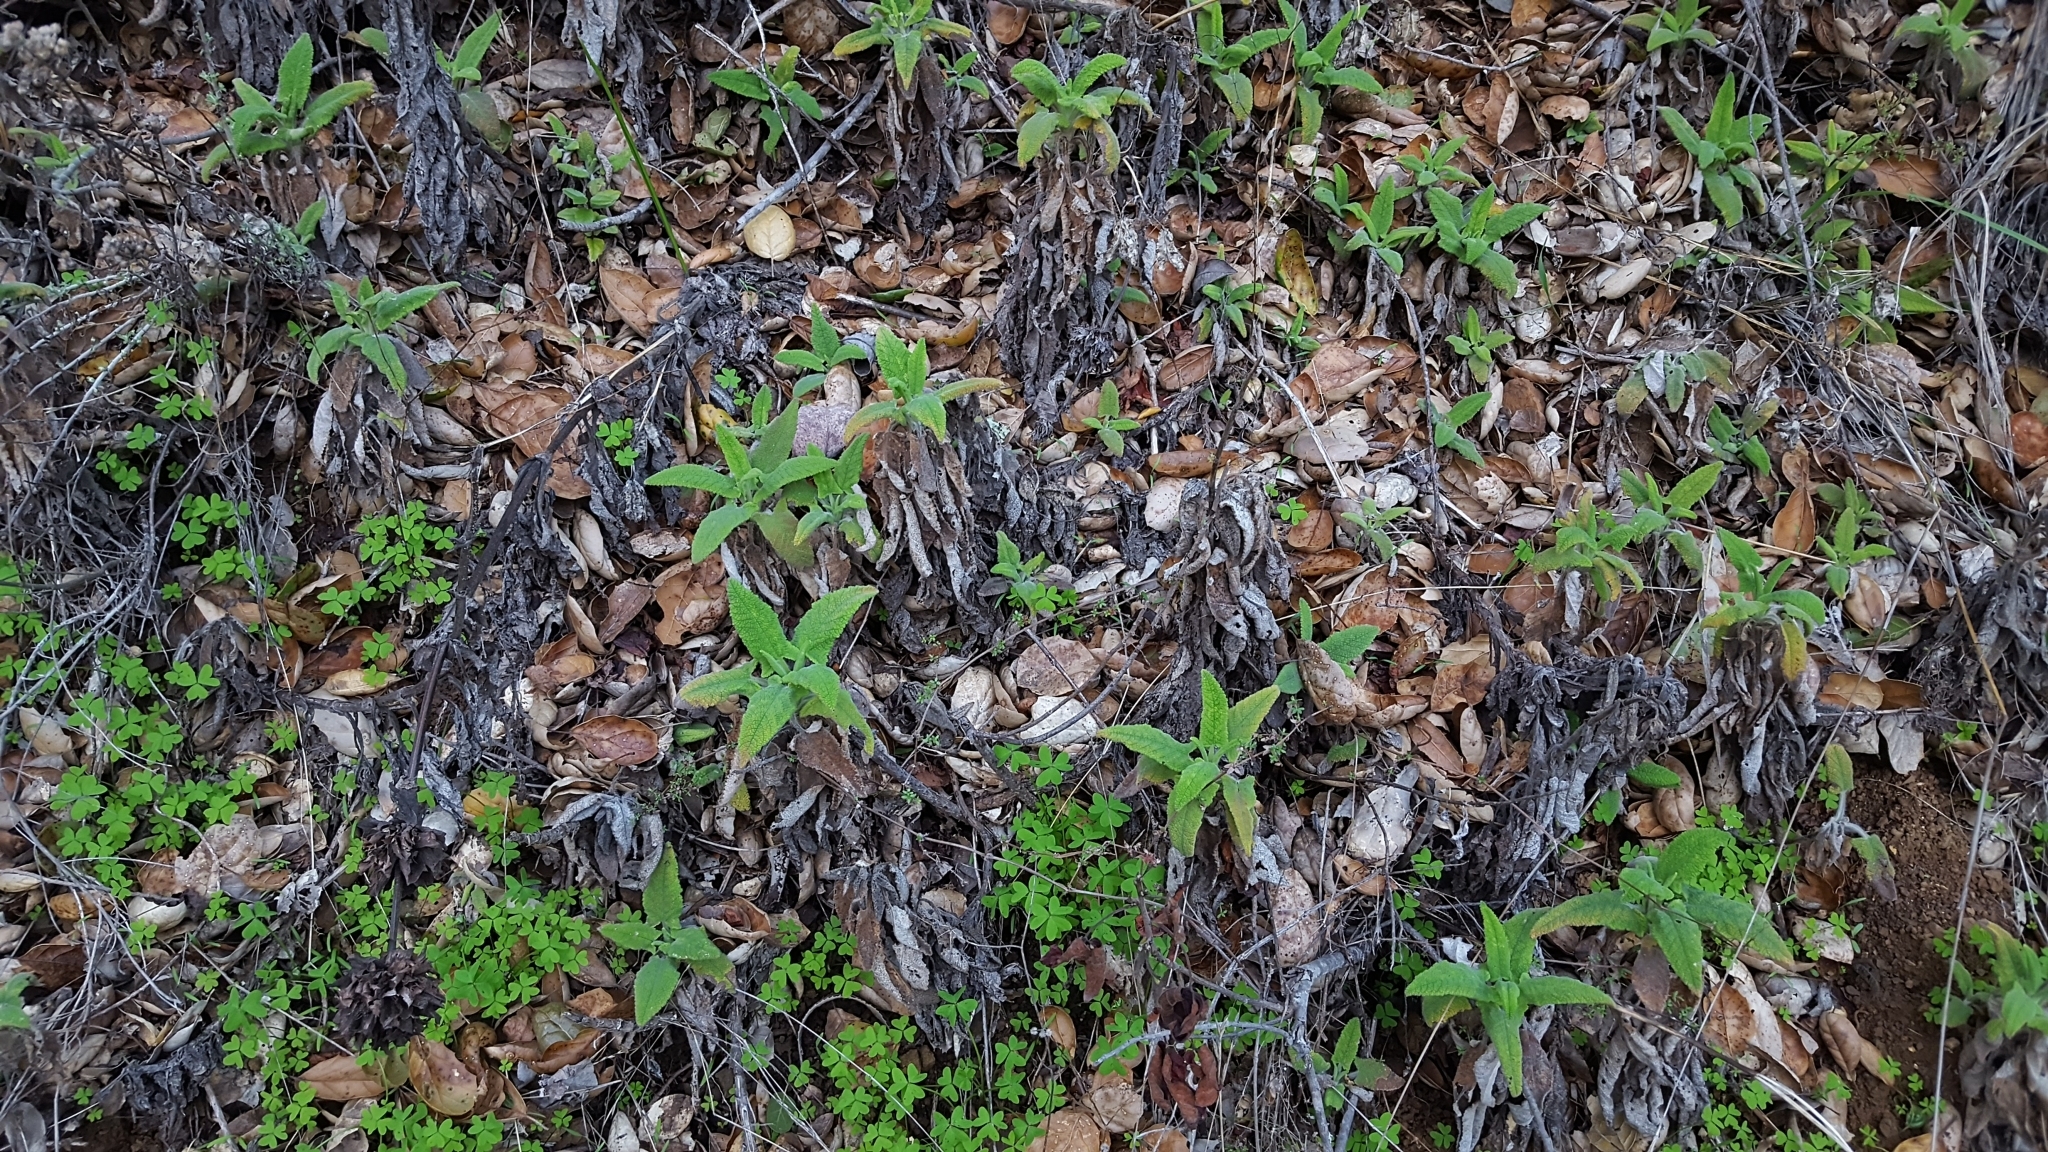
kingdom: Plantae
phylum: Tracheophyta
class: Magnoliopsida
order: Lamiales
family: Lamiaceae
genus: Salvia
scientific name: Salvia spathacea
